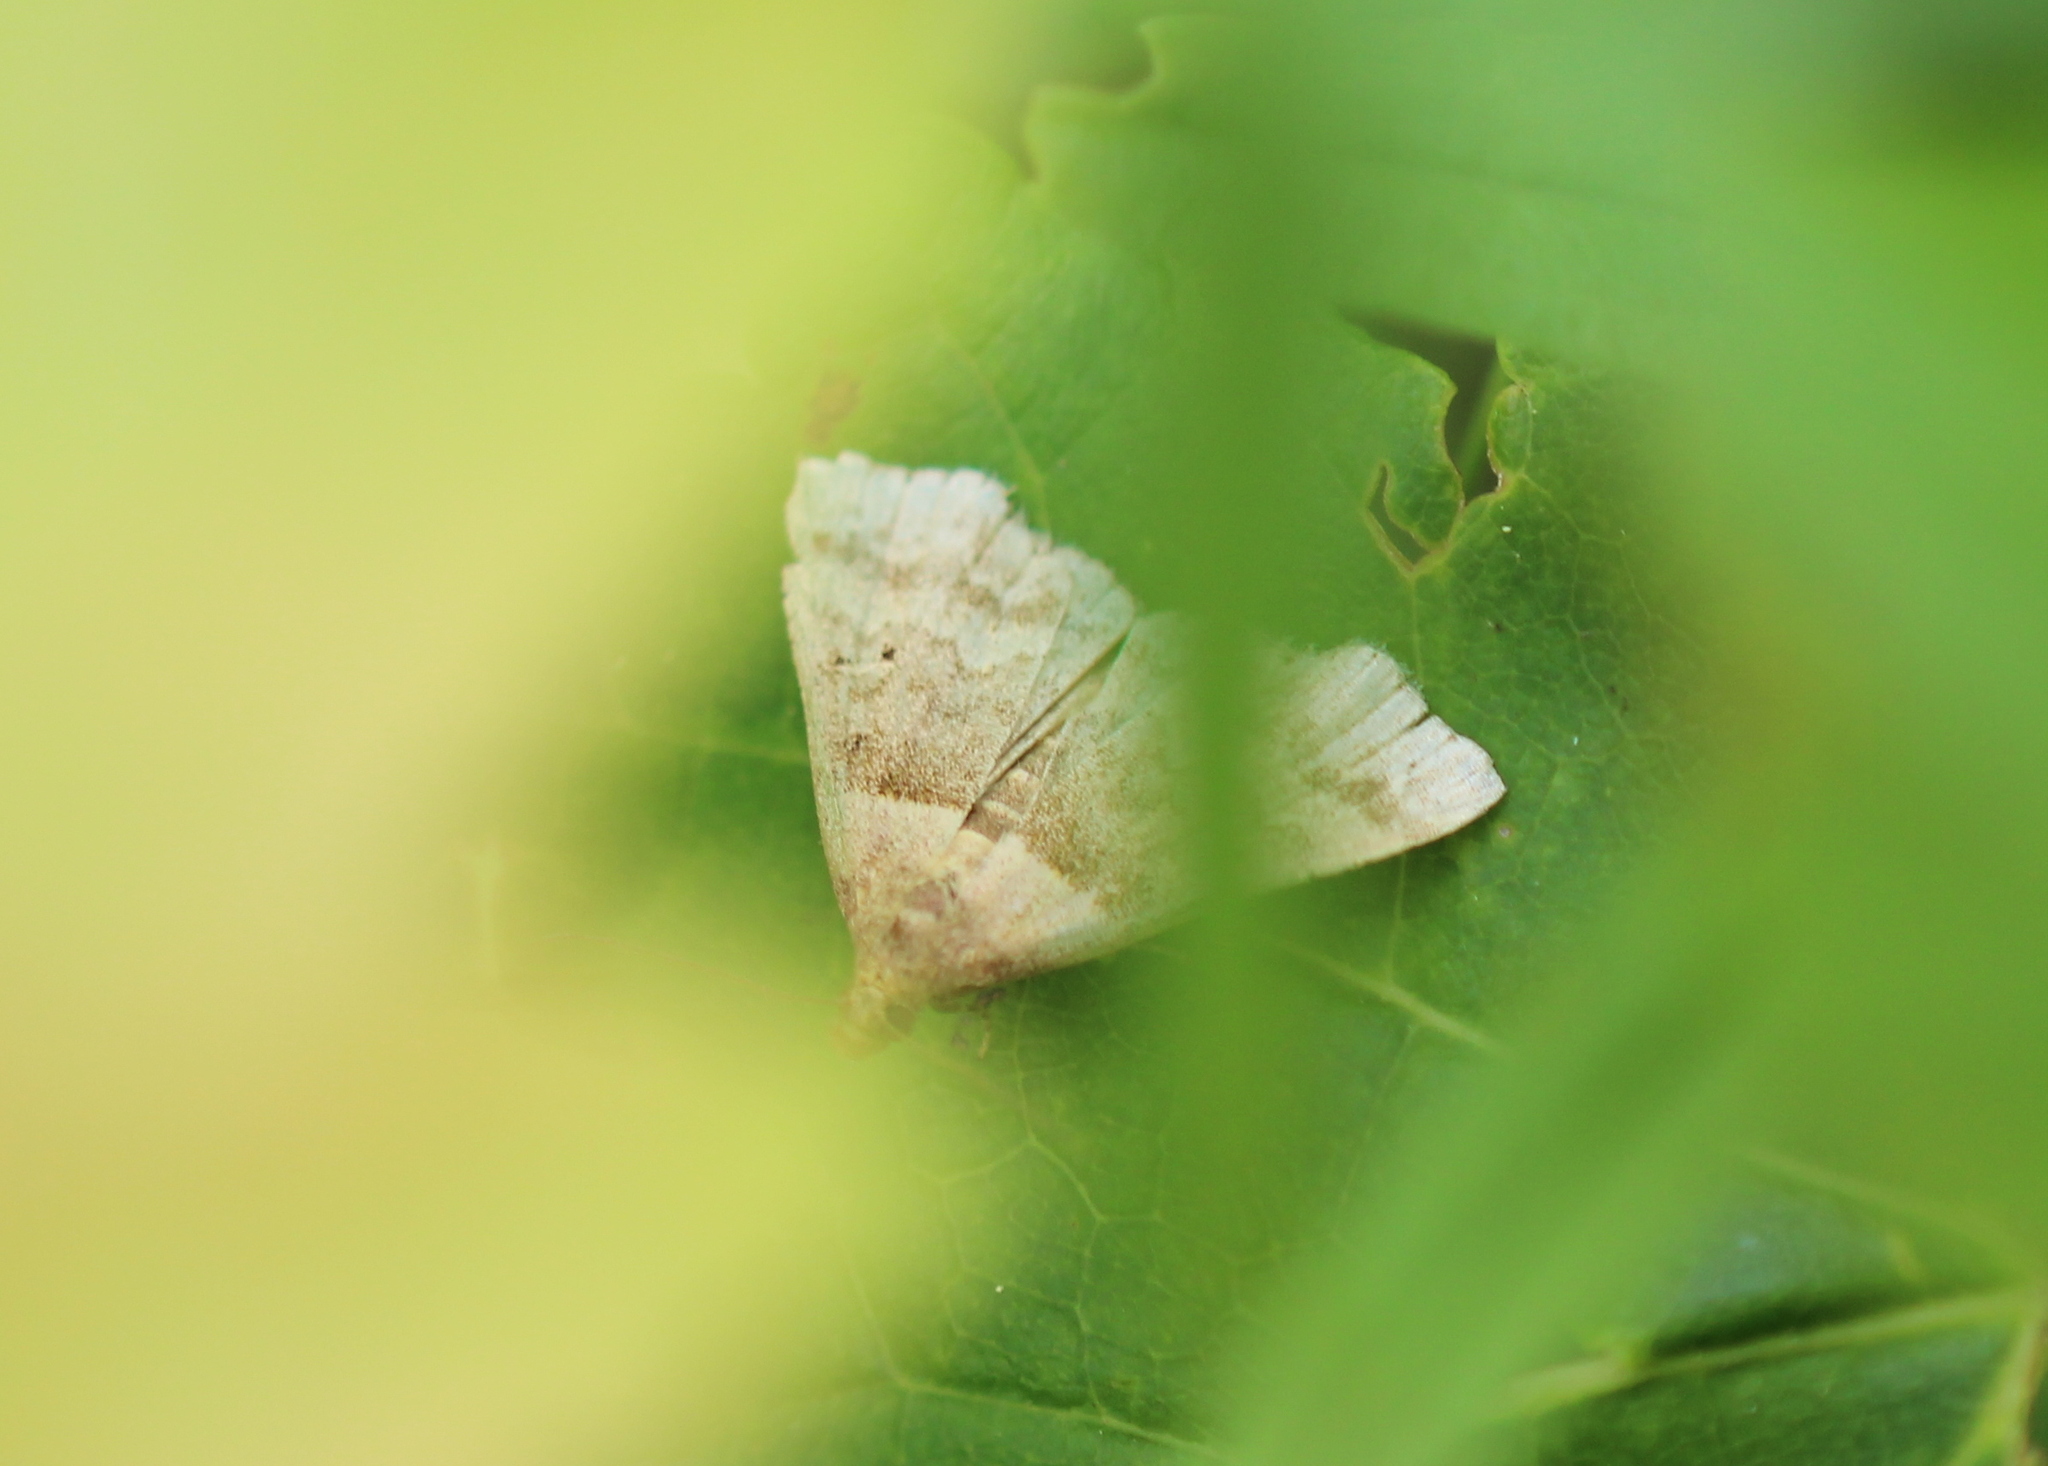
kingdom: Animalia
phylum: Arthropoda
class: Insecta
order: Lepidoptera
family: Erebidae
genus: Phaeolita
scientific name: Phaeolita pyramusalis
